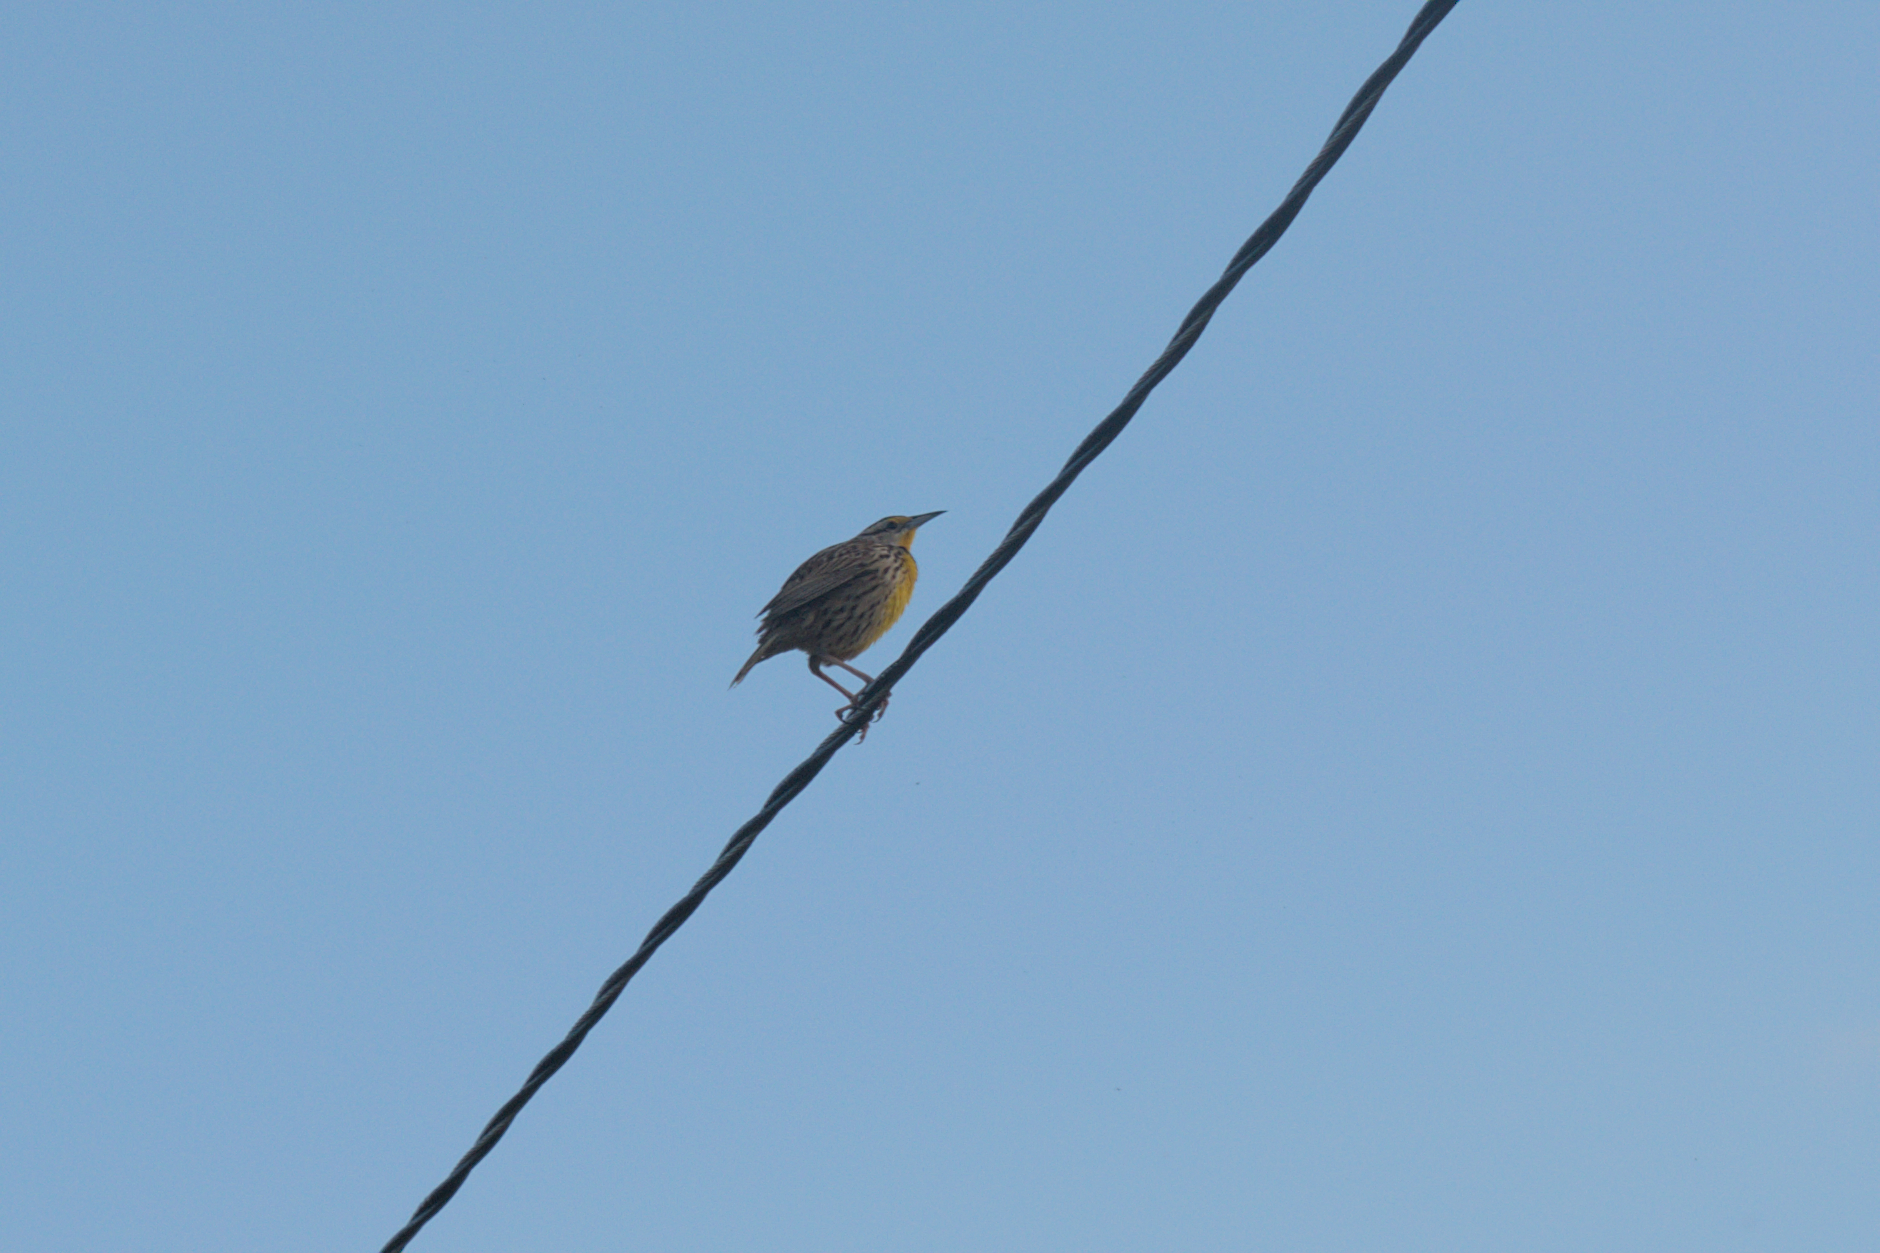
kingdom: Animalia
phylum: Chordata
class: Aves
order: Passeriformes
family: Icteridae
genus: Sturnella
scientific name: Sturnella magna
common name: Eastern meadowlark
